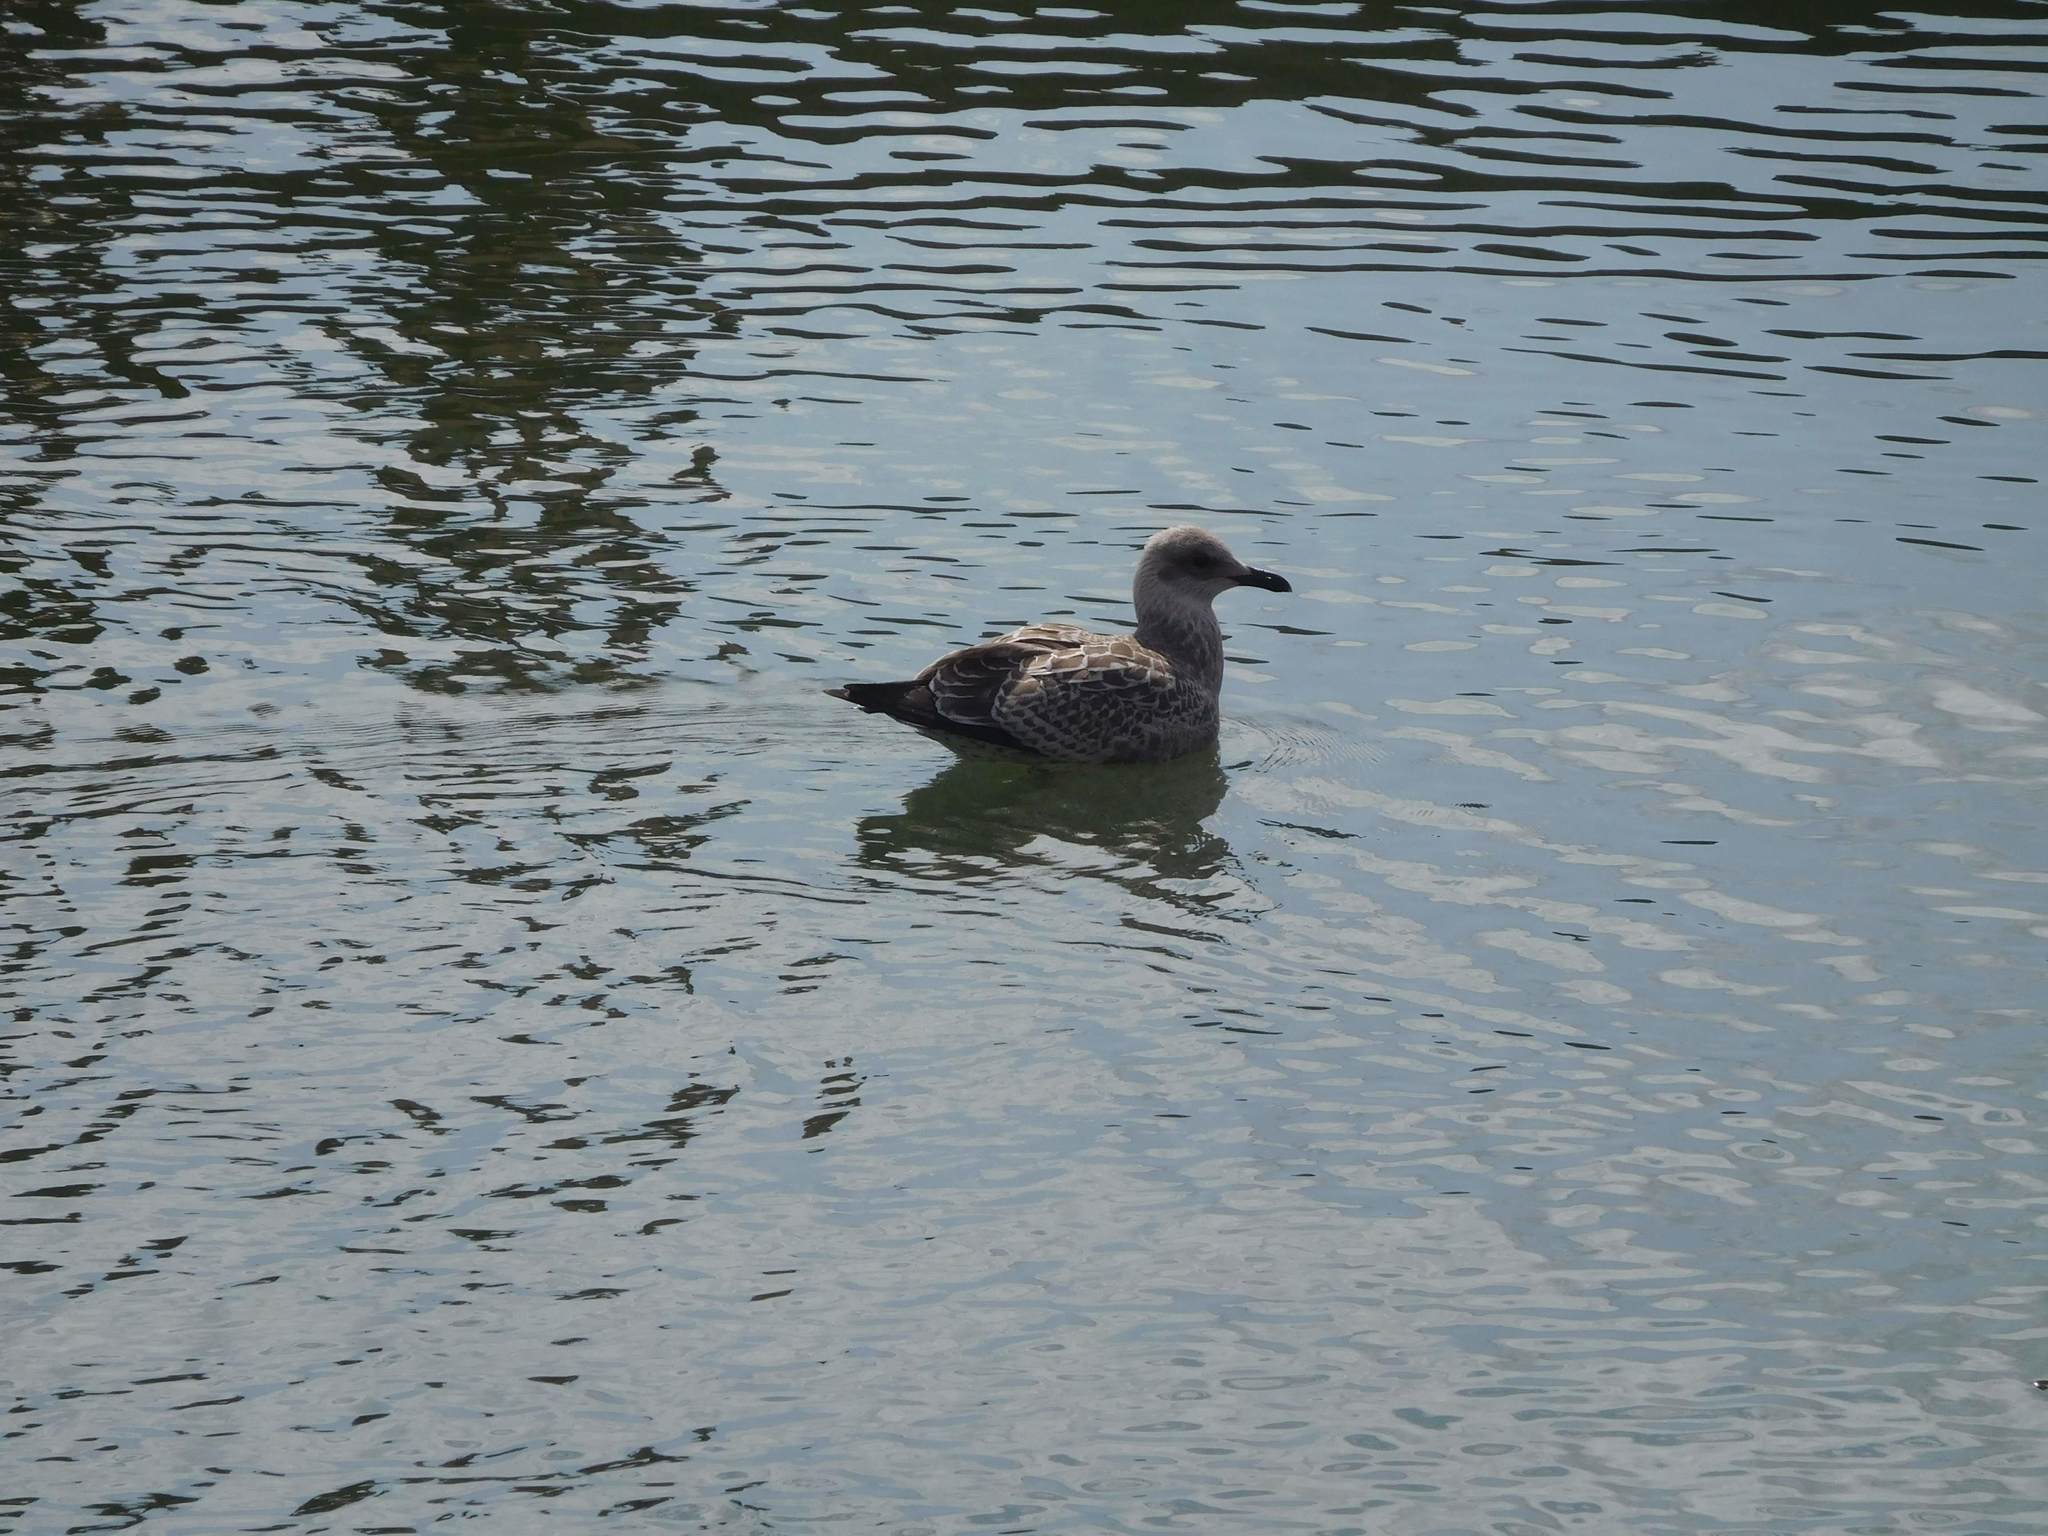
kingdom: Animalia
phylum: Chordata
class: Aves
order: Charadriiformes
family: Laridae
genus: Larus
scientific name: Larus fuscus
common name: Lesser black-backed gull
